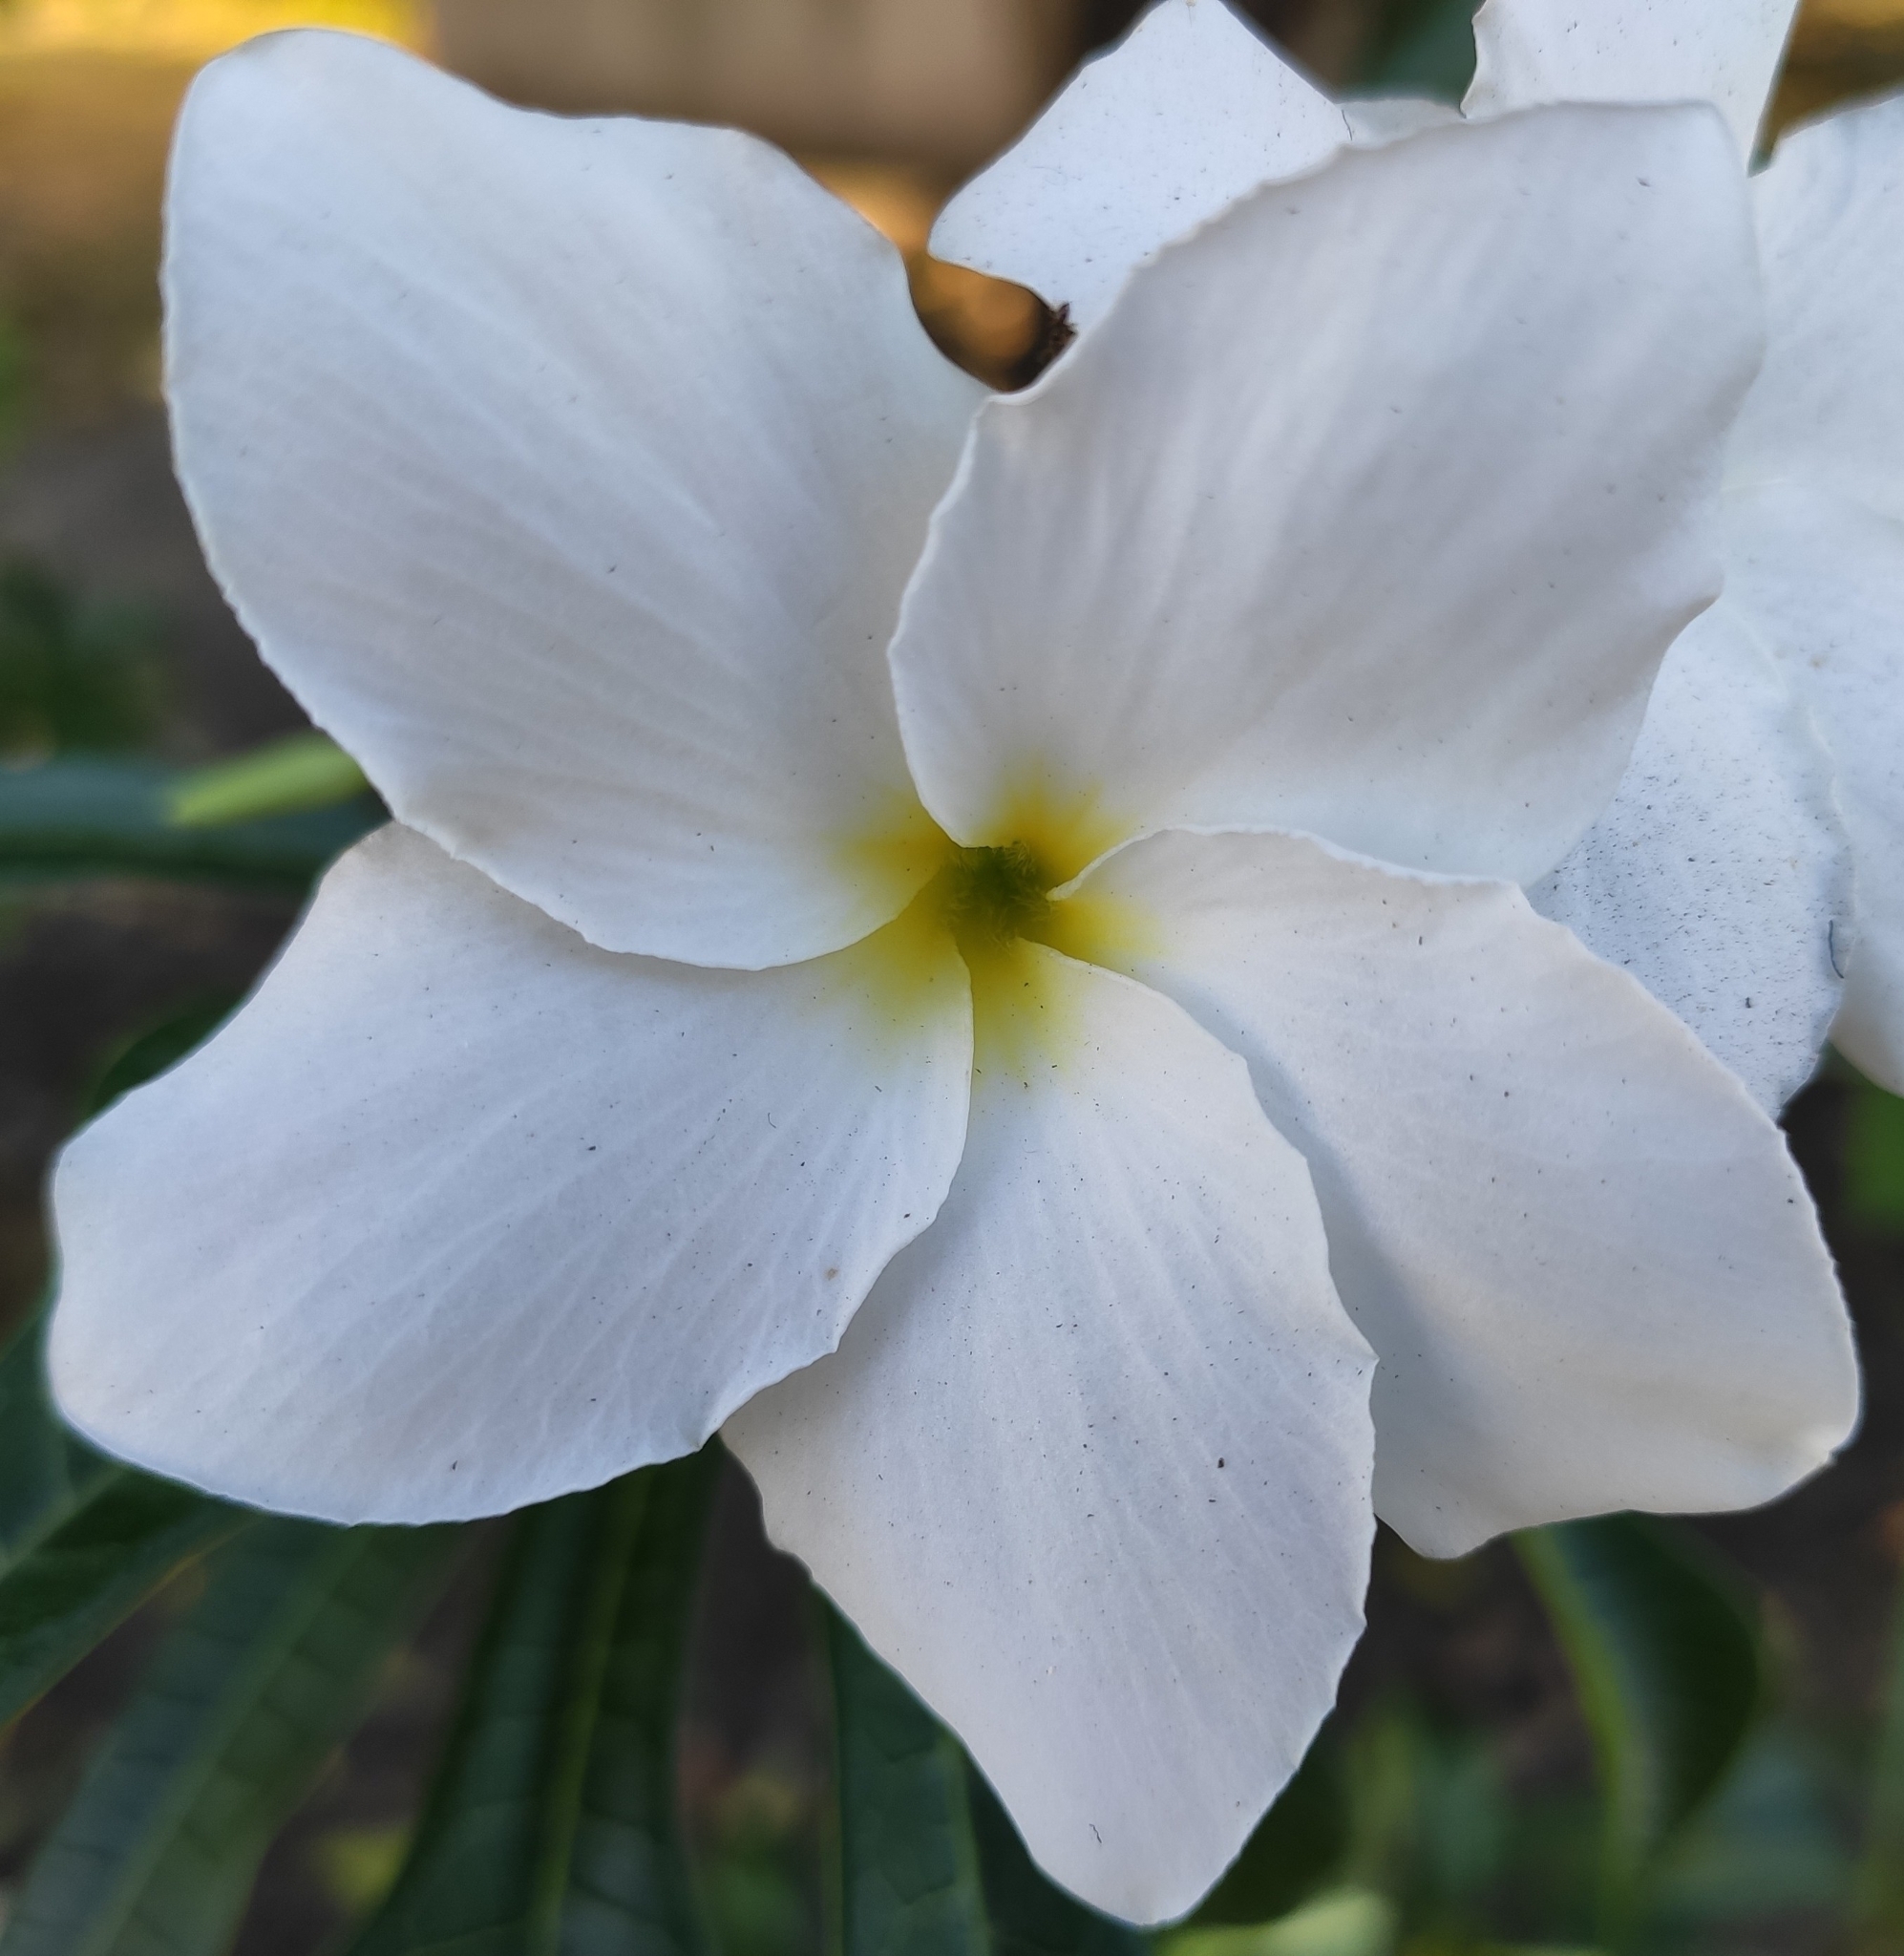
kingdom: Plantae
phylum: Tracheophyta
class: Magnoliopsida
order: Gentianales
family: Apocynaceae
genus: Plumeria
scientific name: Plumeria pudica
